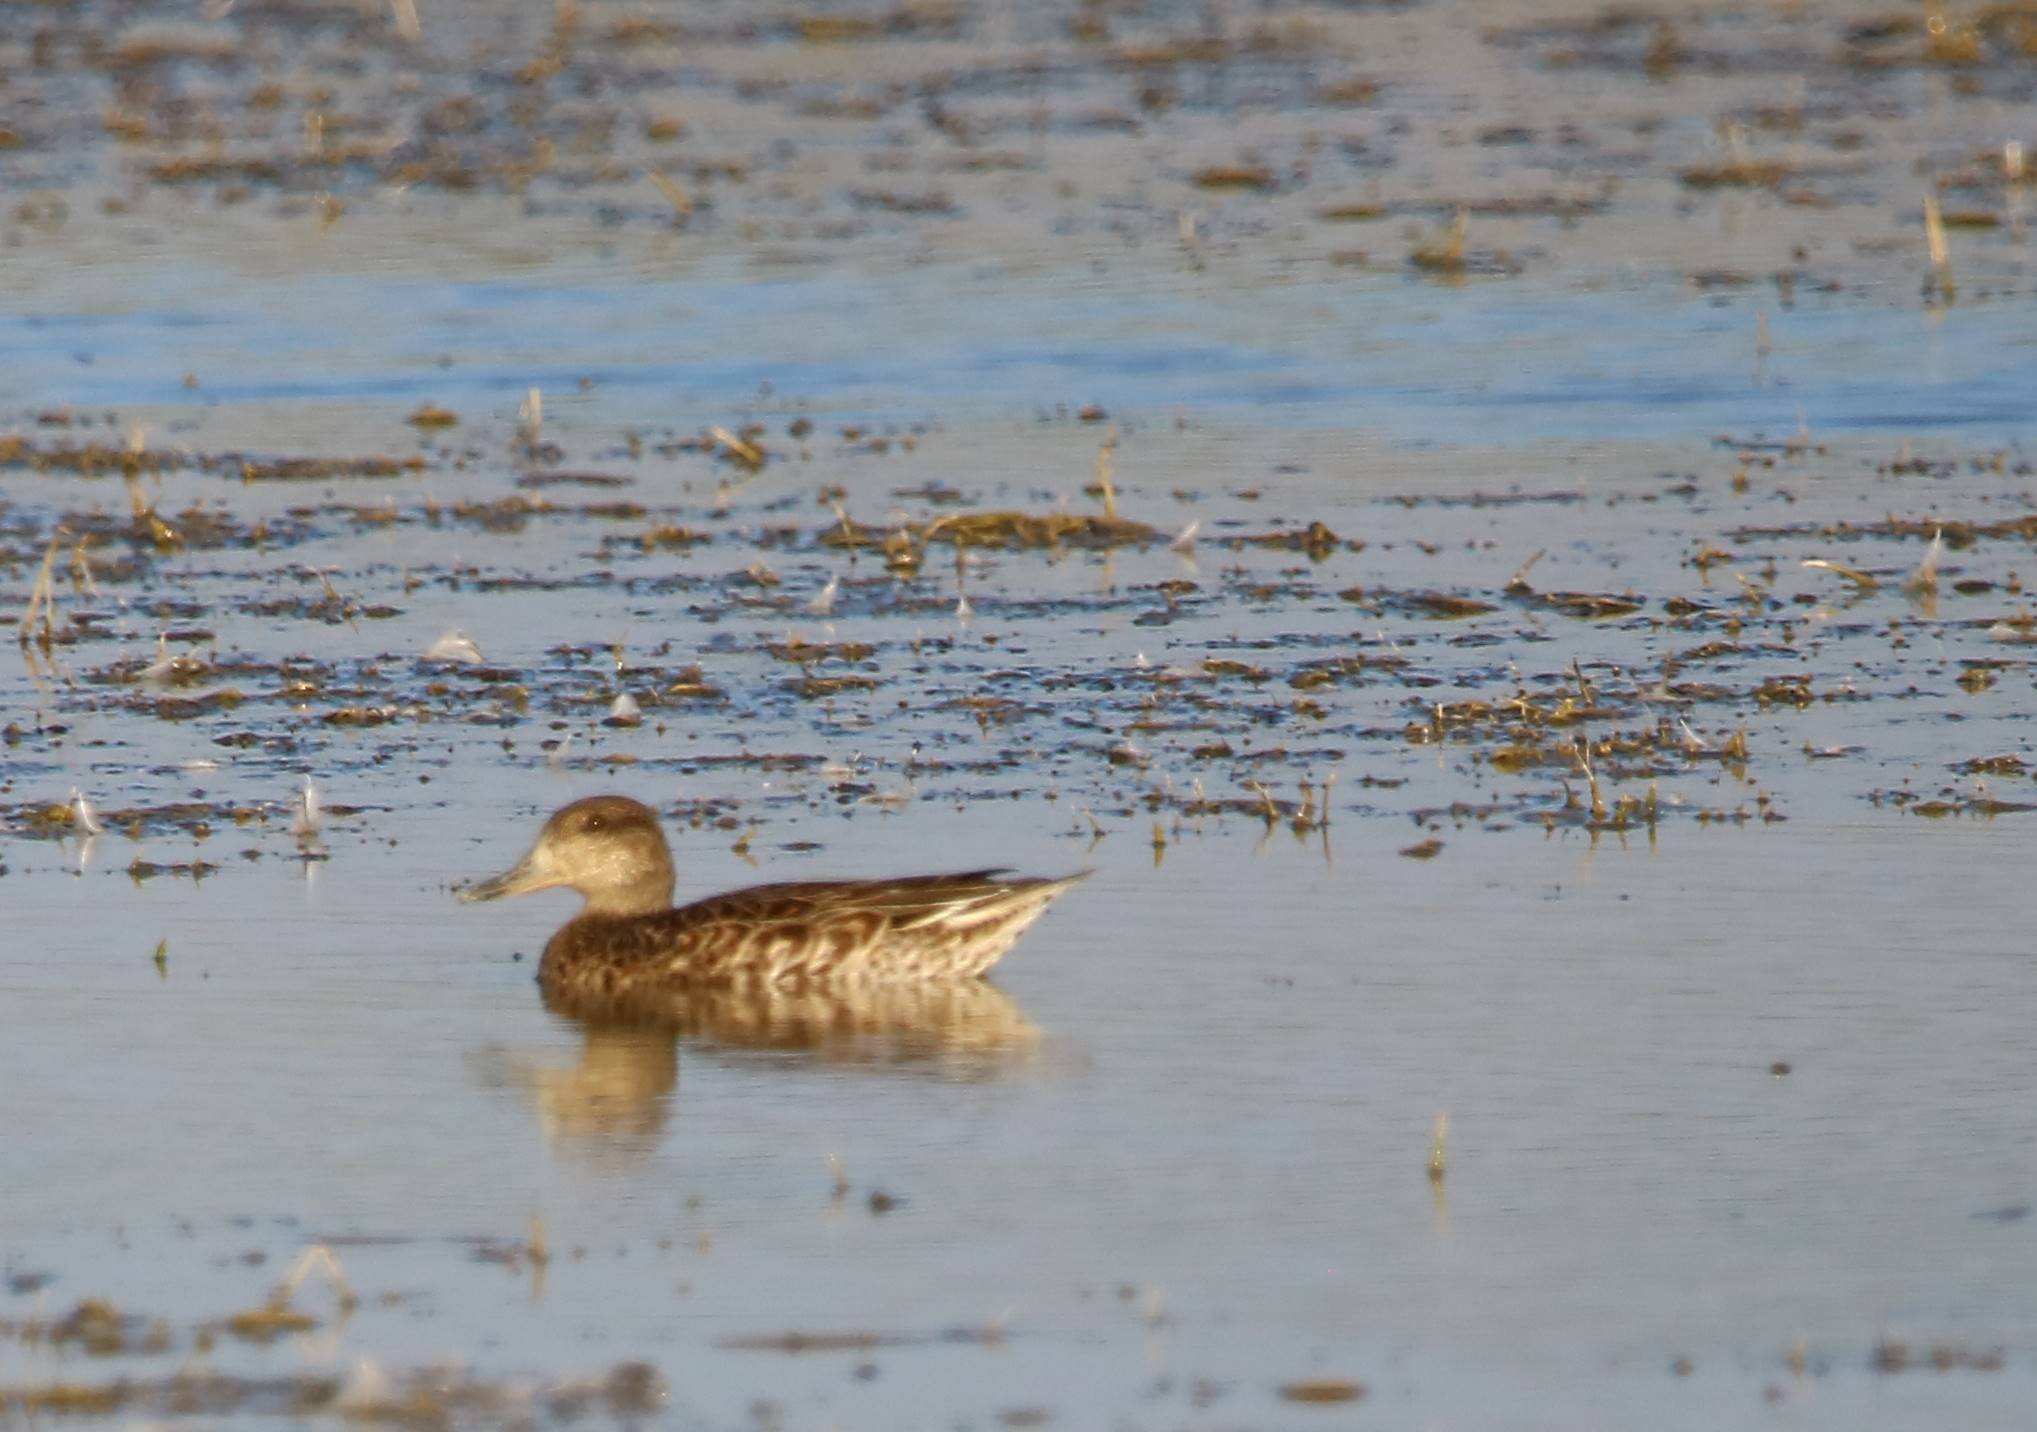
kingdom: Animalia
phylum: Chordata
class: Aves
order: Anseriformes
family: Anatidae
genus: Anas
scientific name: Anas crecca
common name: Eurasian teal
